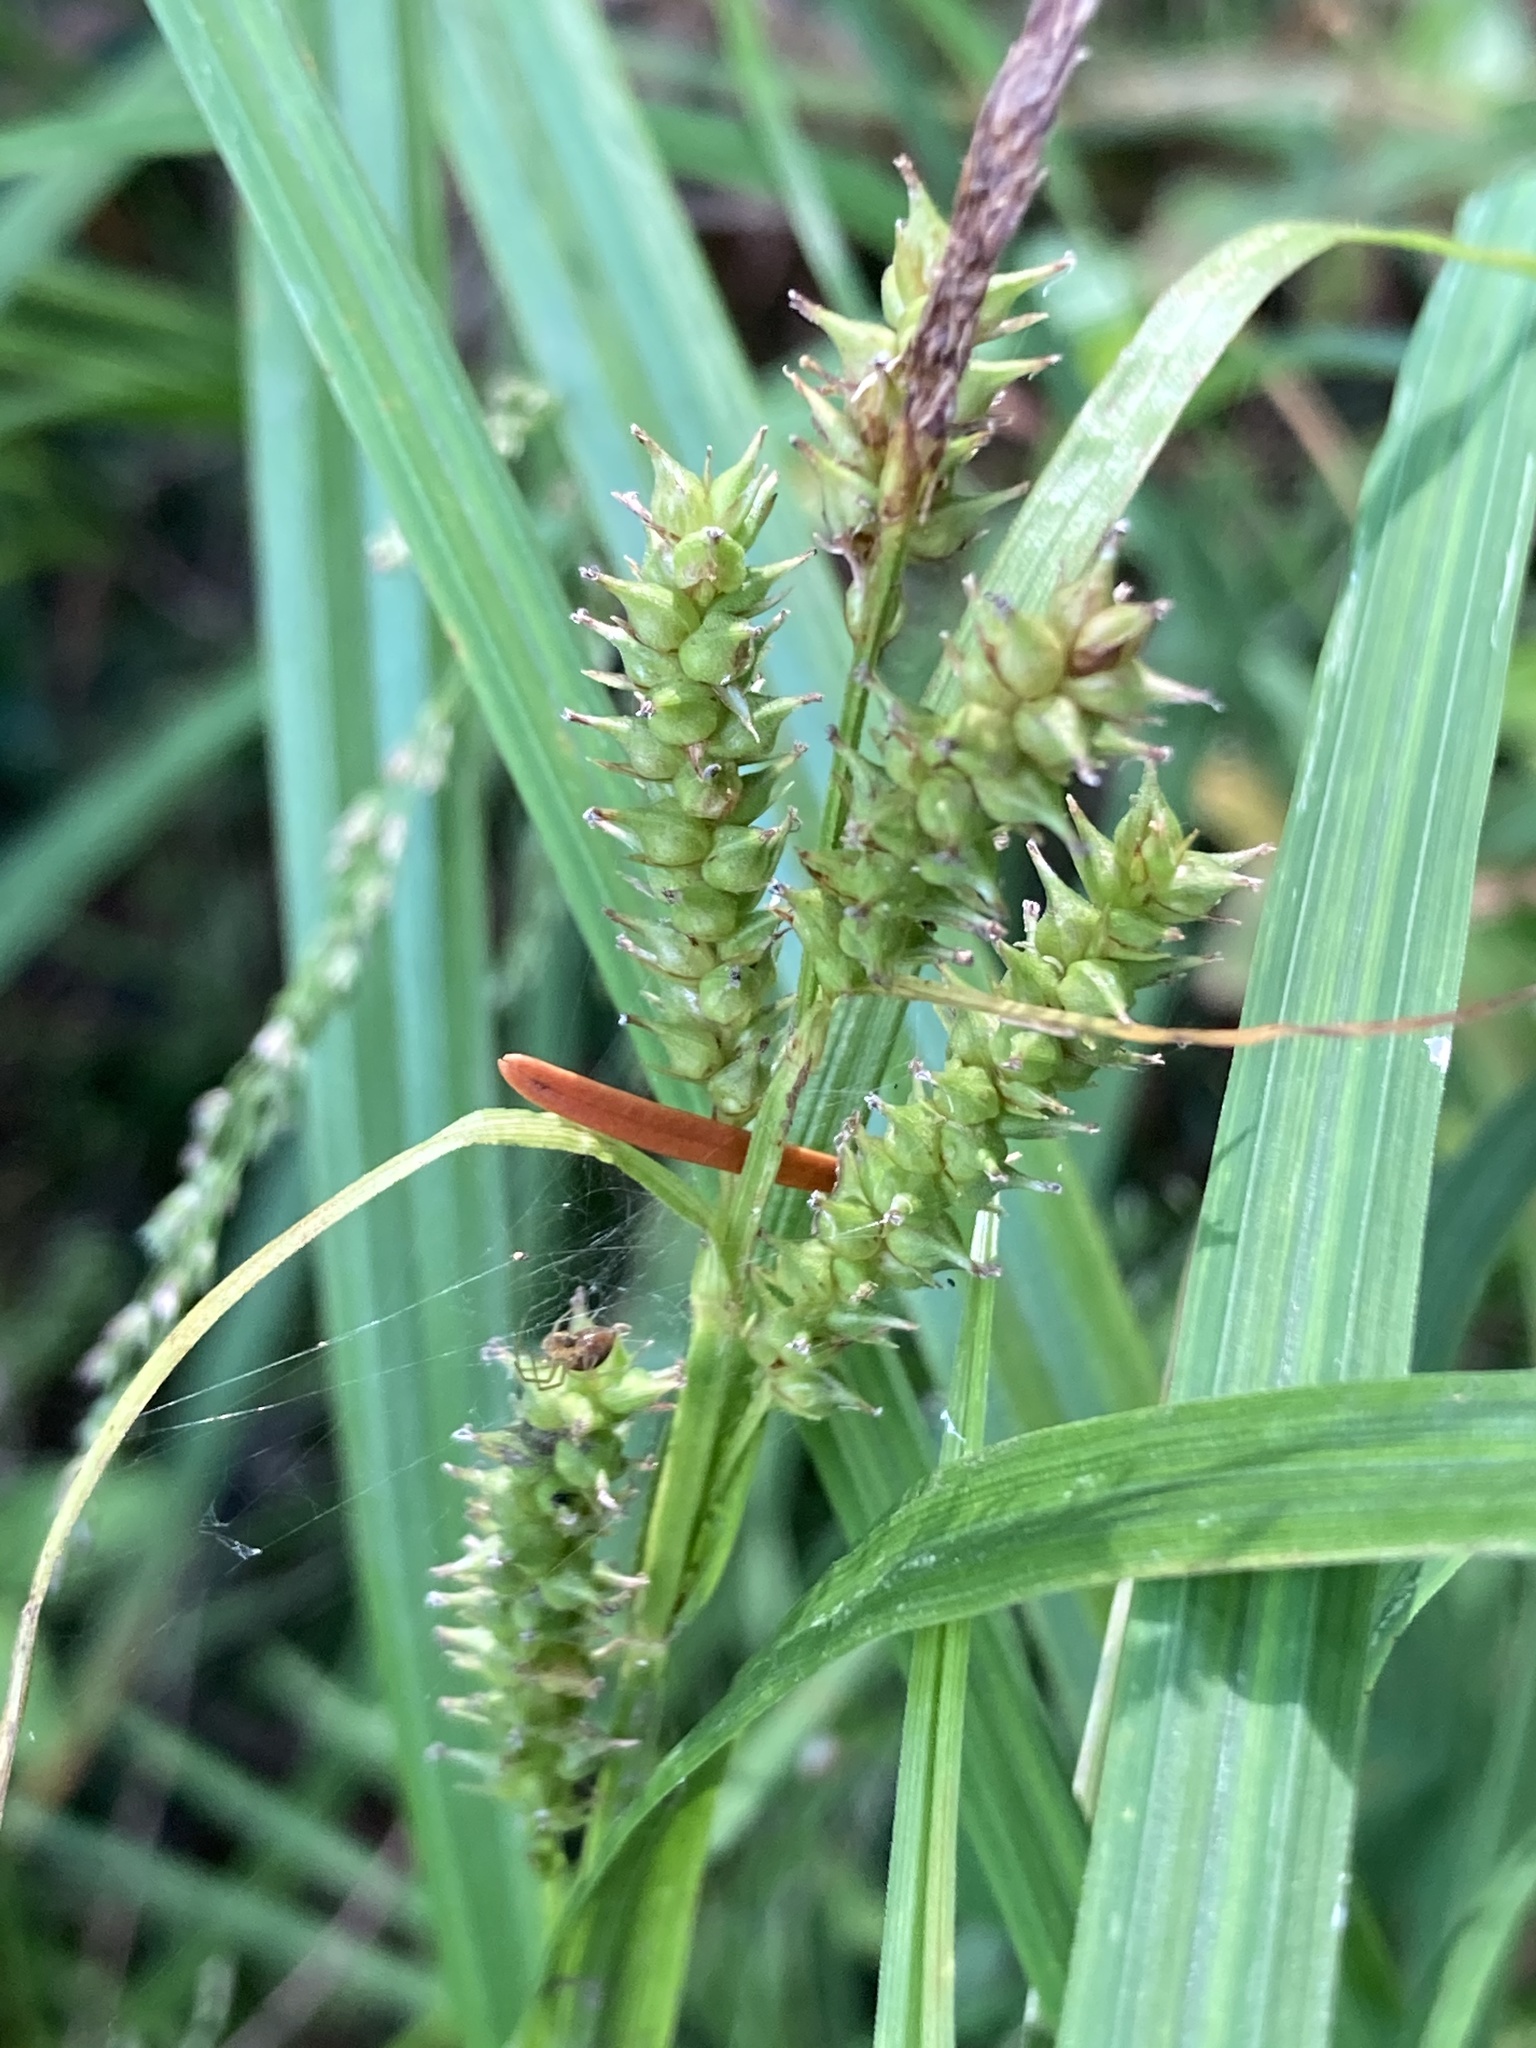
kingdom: Plantae
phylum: Tracheophyta
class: Liliopsida
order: Poales
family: Cyperaceae
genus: Carex
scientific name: Carex scabrata
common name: Eastern rough sedge
